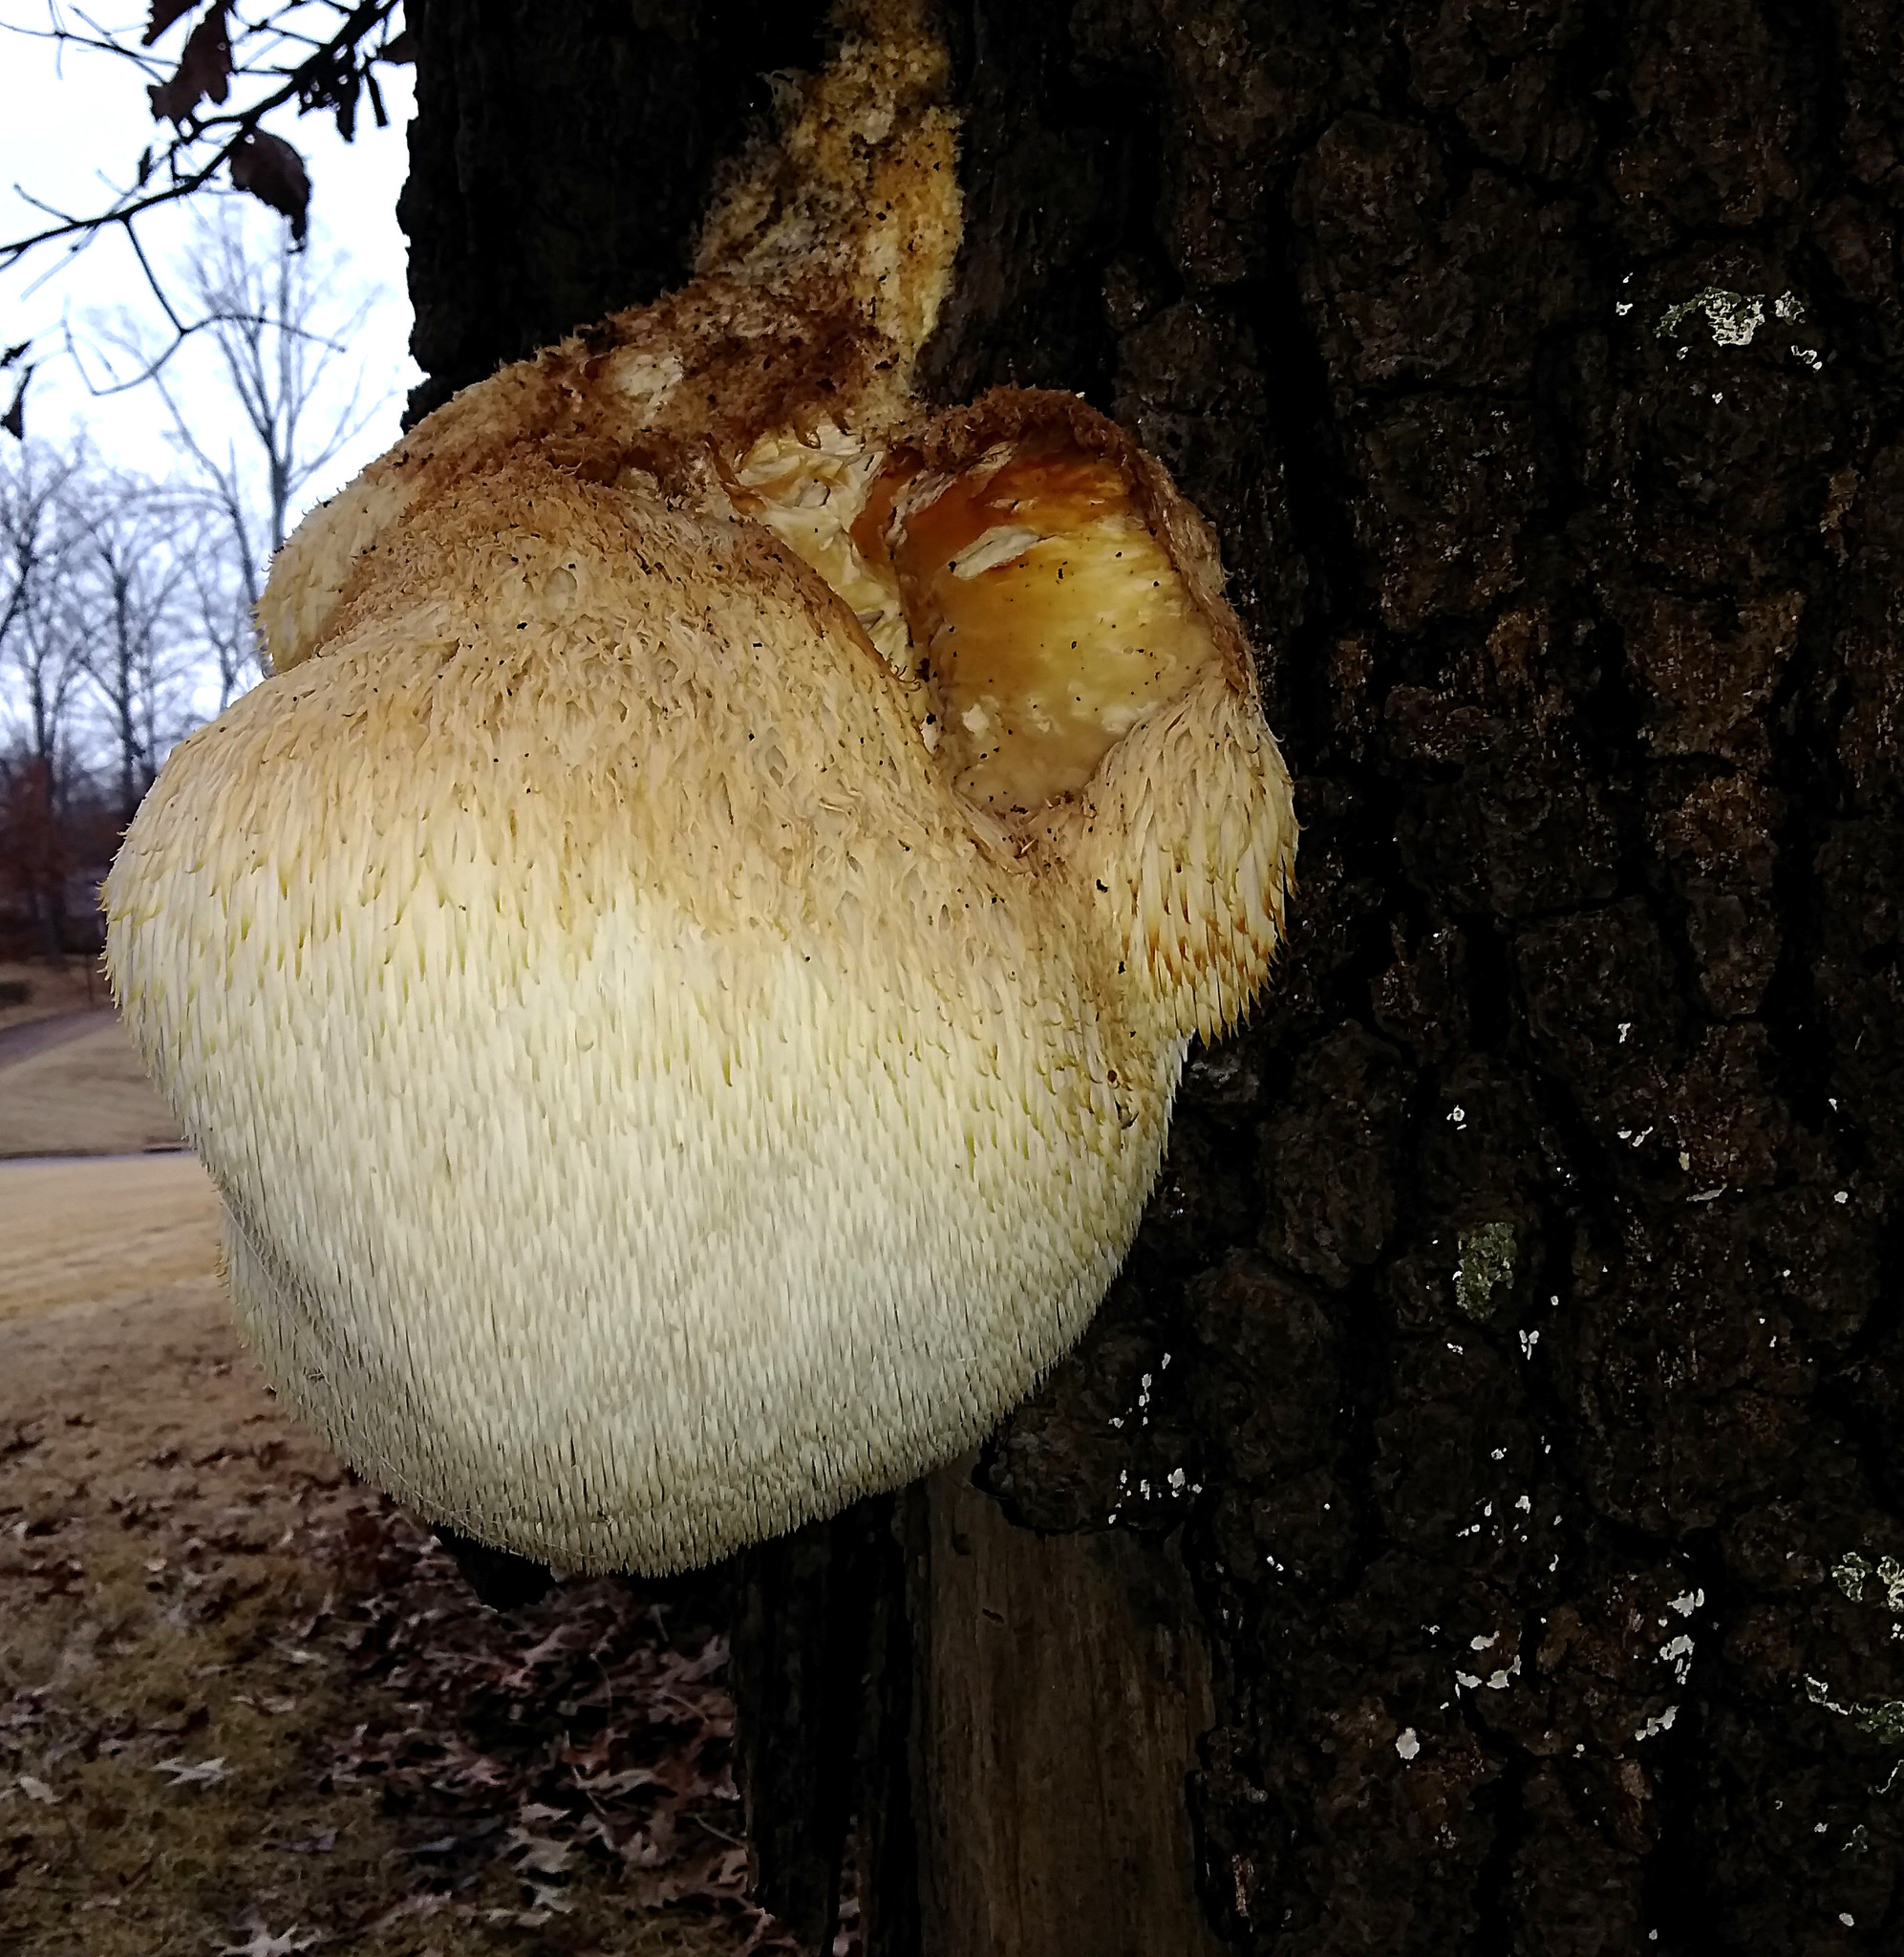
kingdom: Fungi
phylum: Basidiomycota
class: Agaricomycetes
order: Russulales
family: Hericiaceae
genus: Hericium
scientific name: Hericium erinaceus
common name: Bearded tooth
